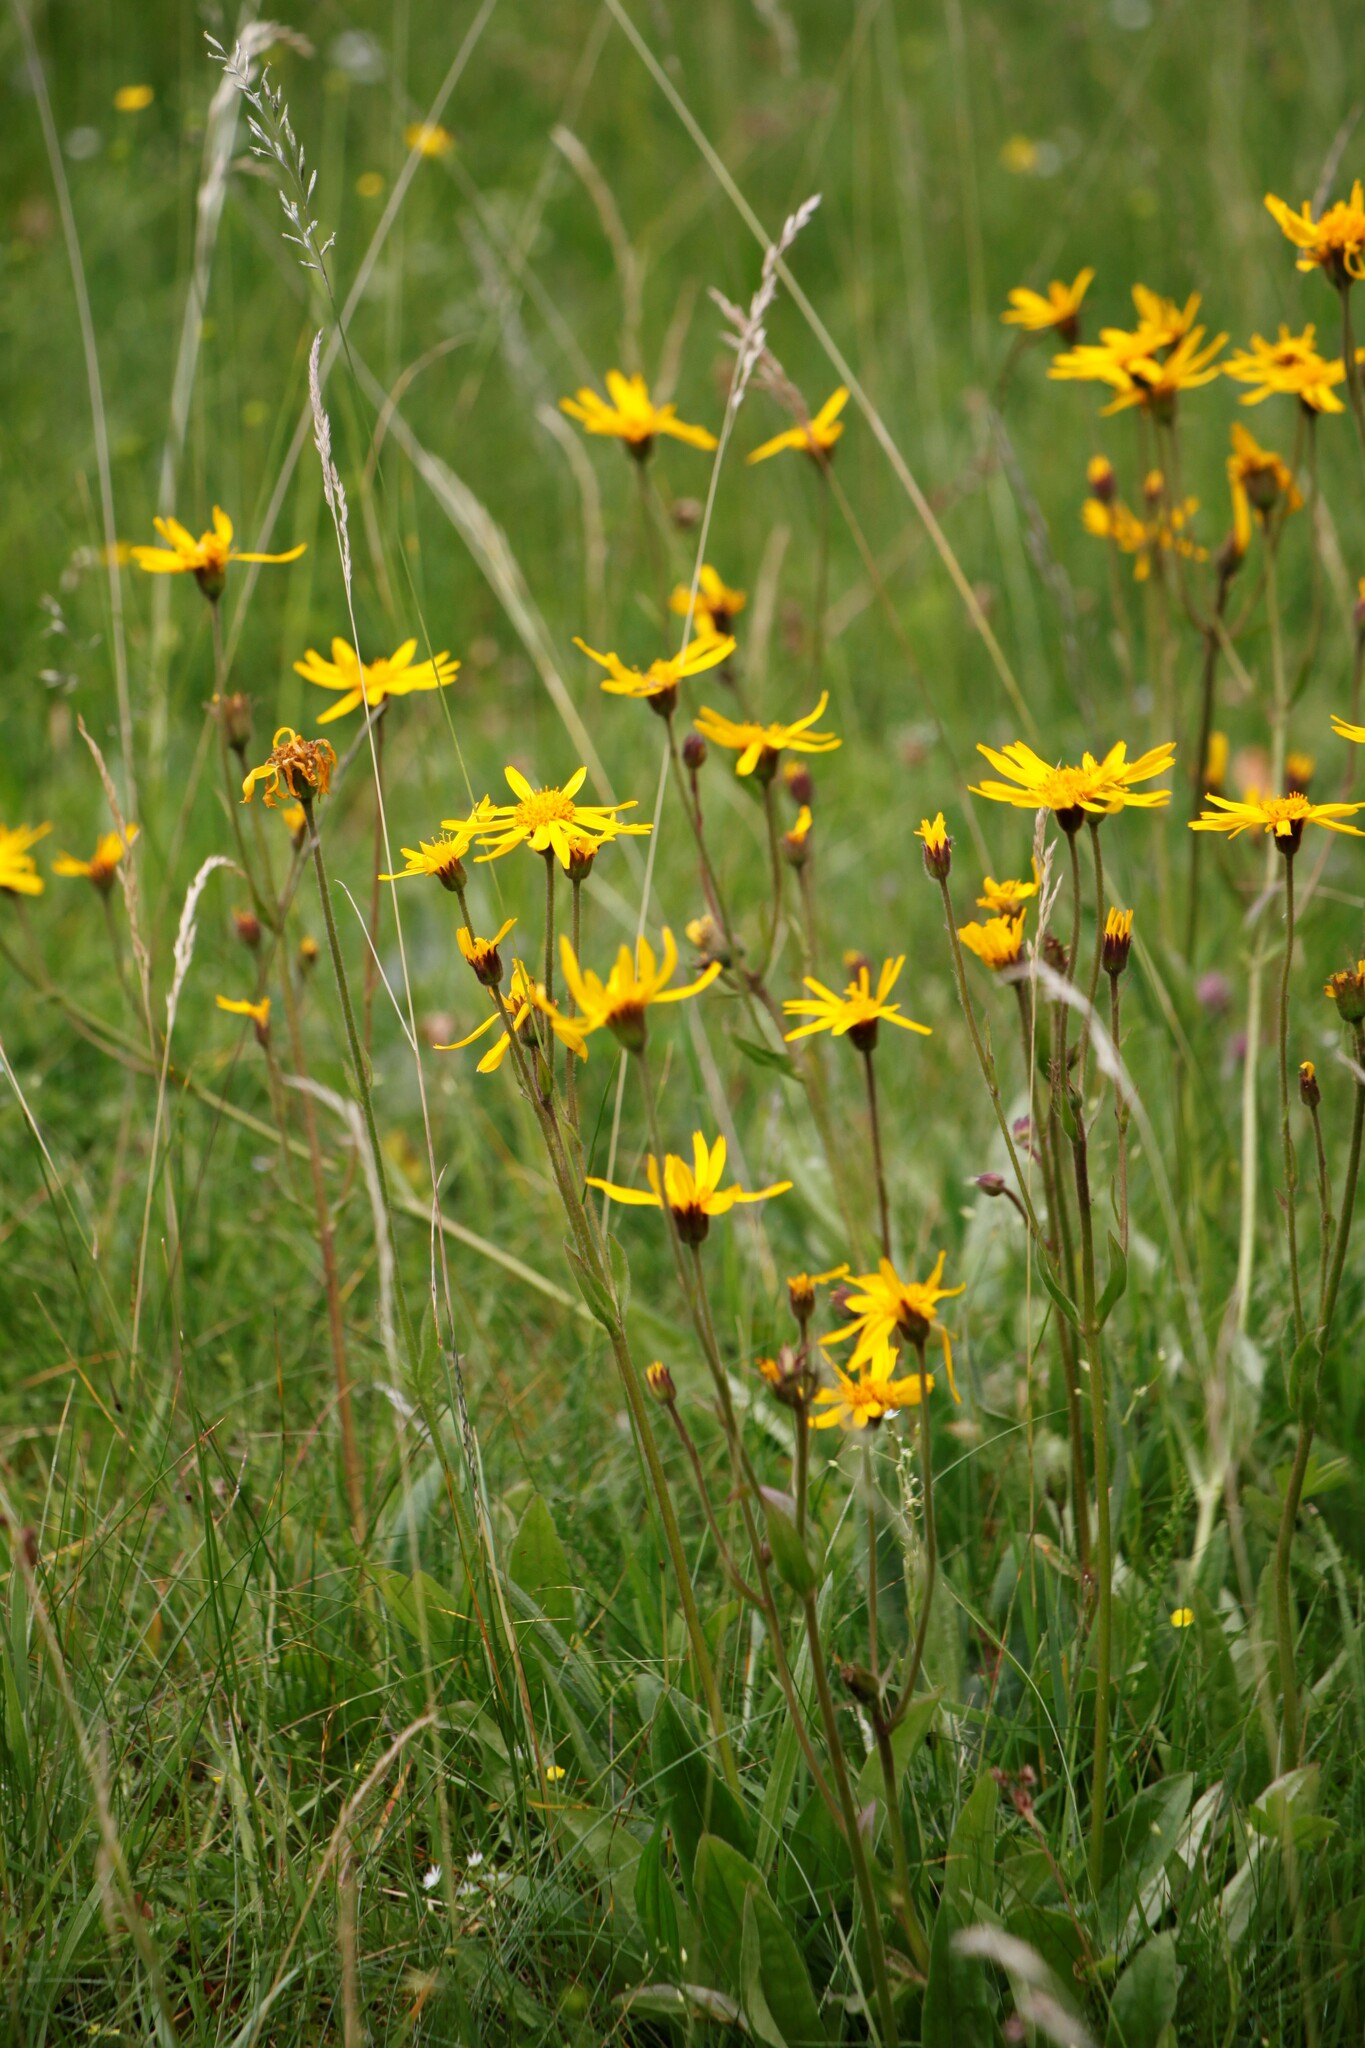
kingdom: Plantae
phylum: Tracheophyta
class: Magnoliopsida
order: Asterales
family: Asteraceae
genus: Arnica
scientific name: Arnica montana
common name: Leopard's bane
